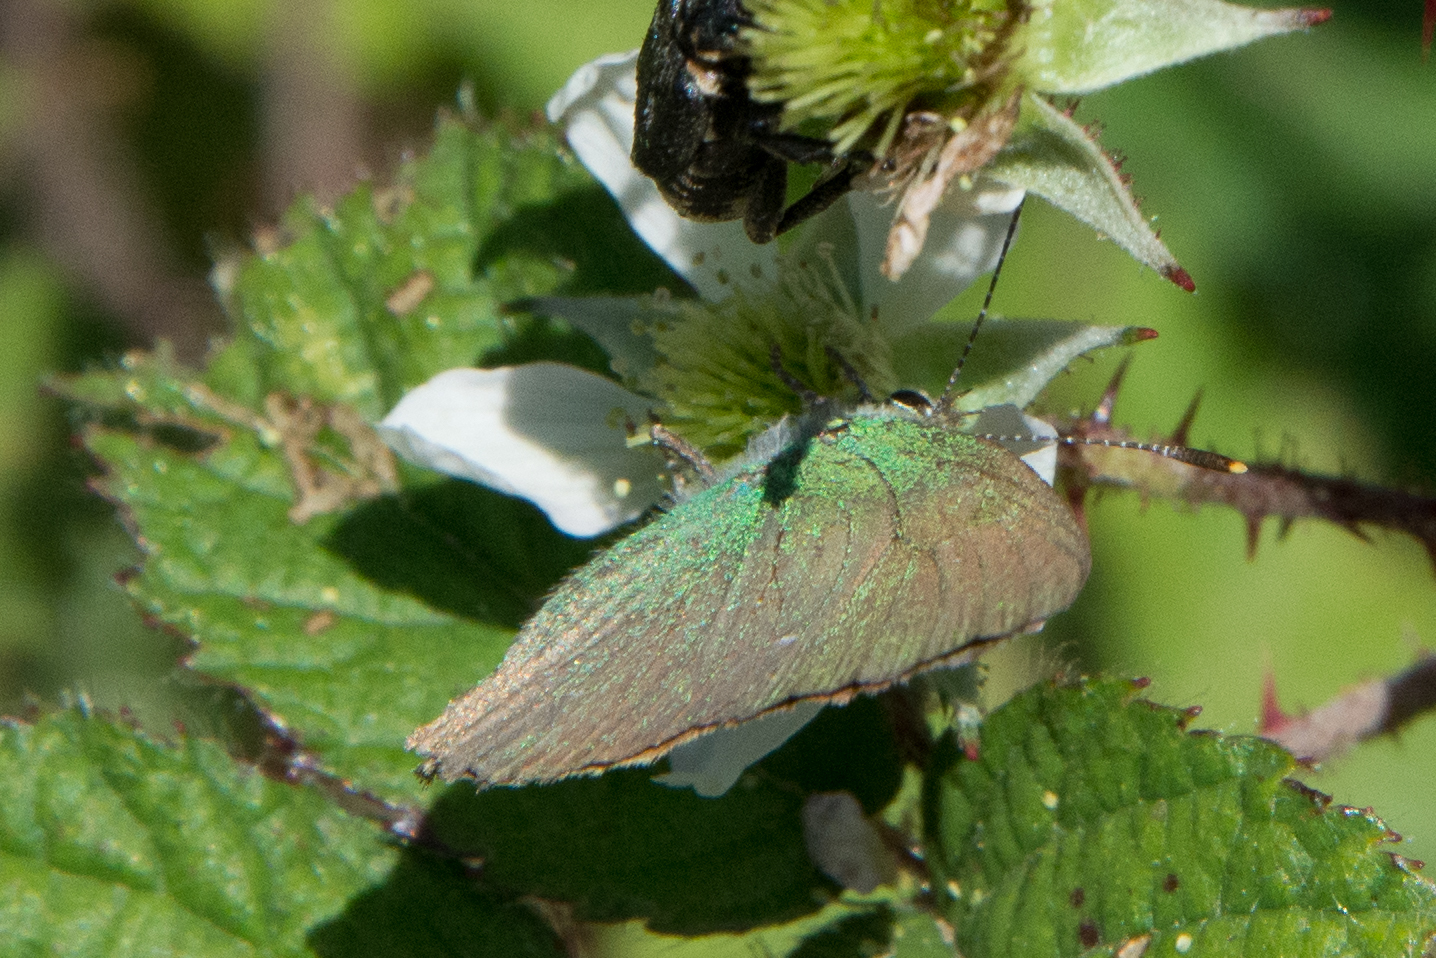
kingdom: Animalia
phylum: Arthropoda
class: Insecta
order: Lepidoptera
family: Lycaenidae
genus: Callophrys
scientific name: Callophrys rubi
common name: Green hairstreak
